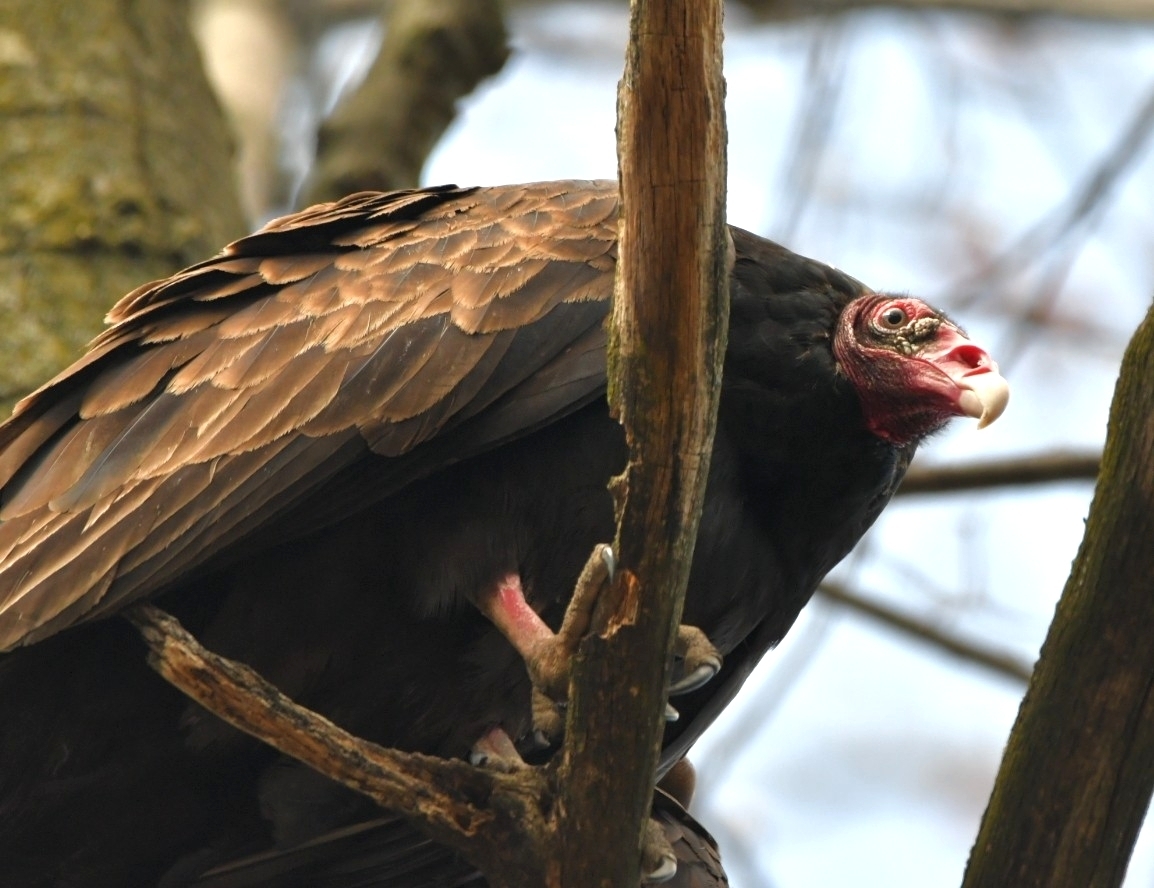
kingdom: Animalia
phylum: Chordata
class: Aves
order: Accipitriformes
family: Cathartidae
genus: Cathartes
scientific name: Cathartes aura
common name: Turkey vulture
